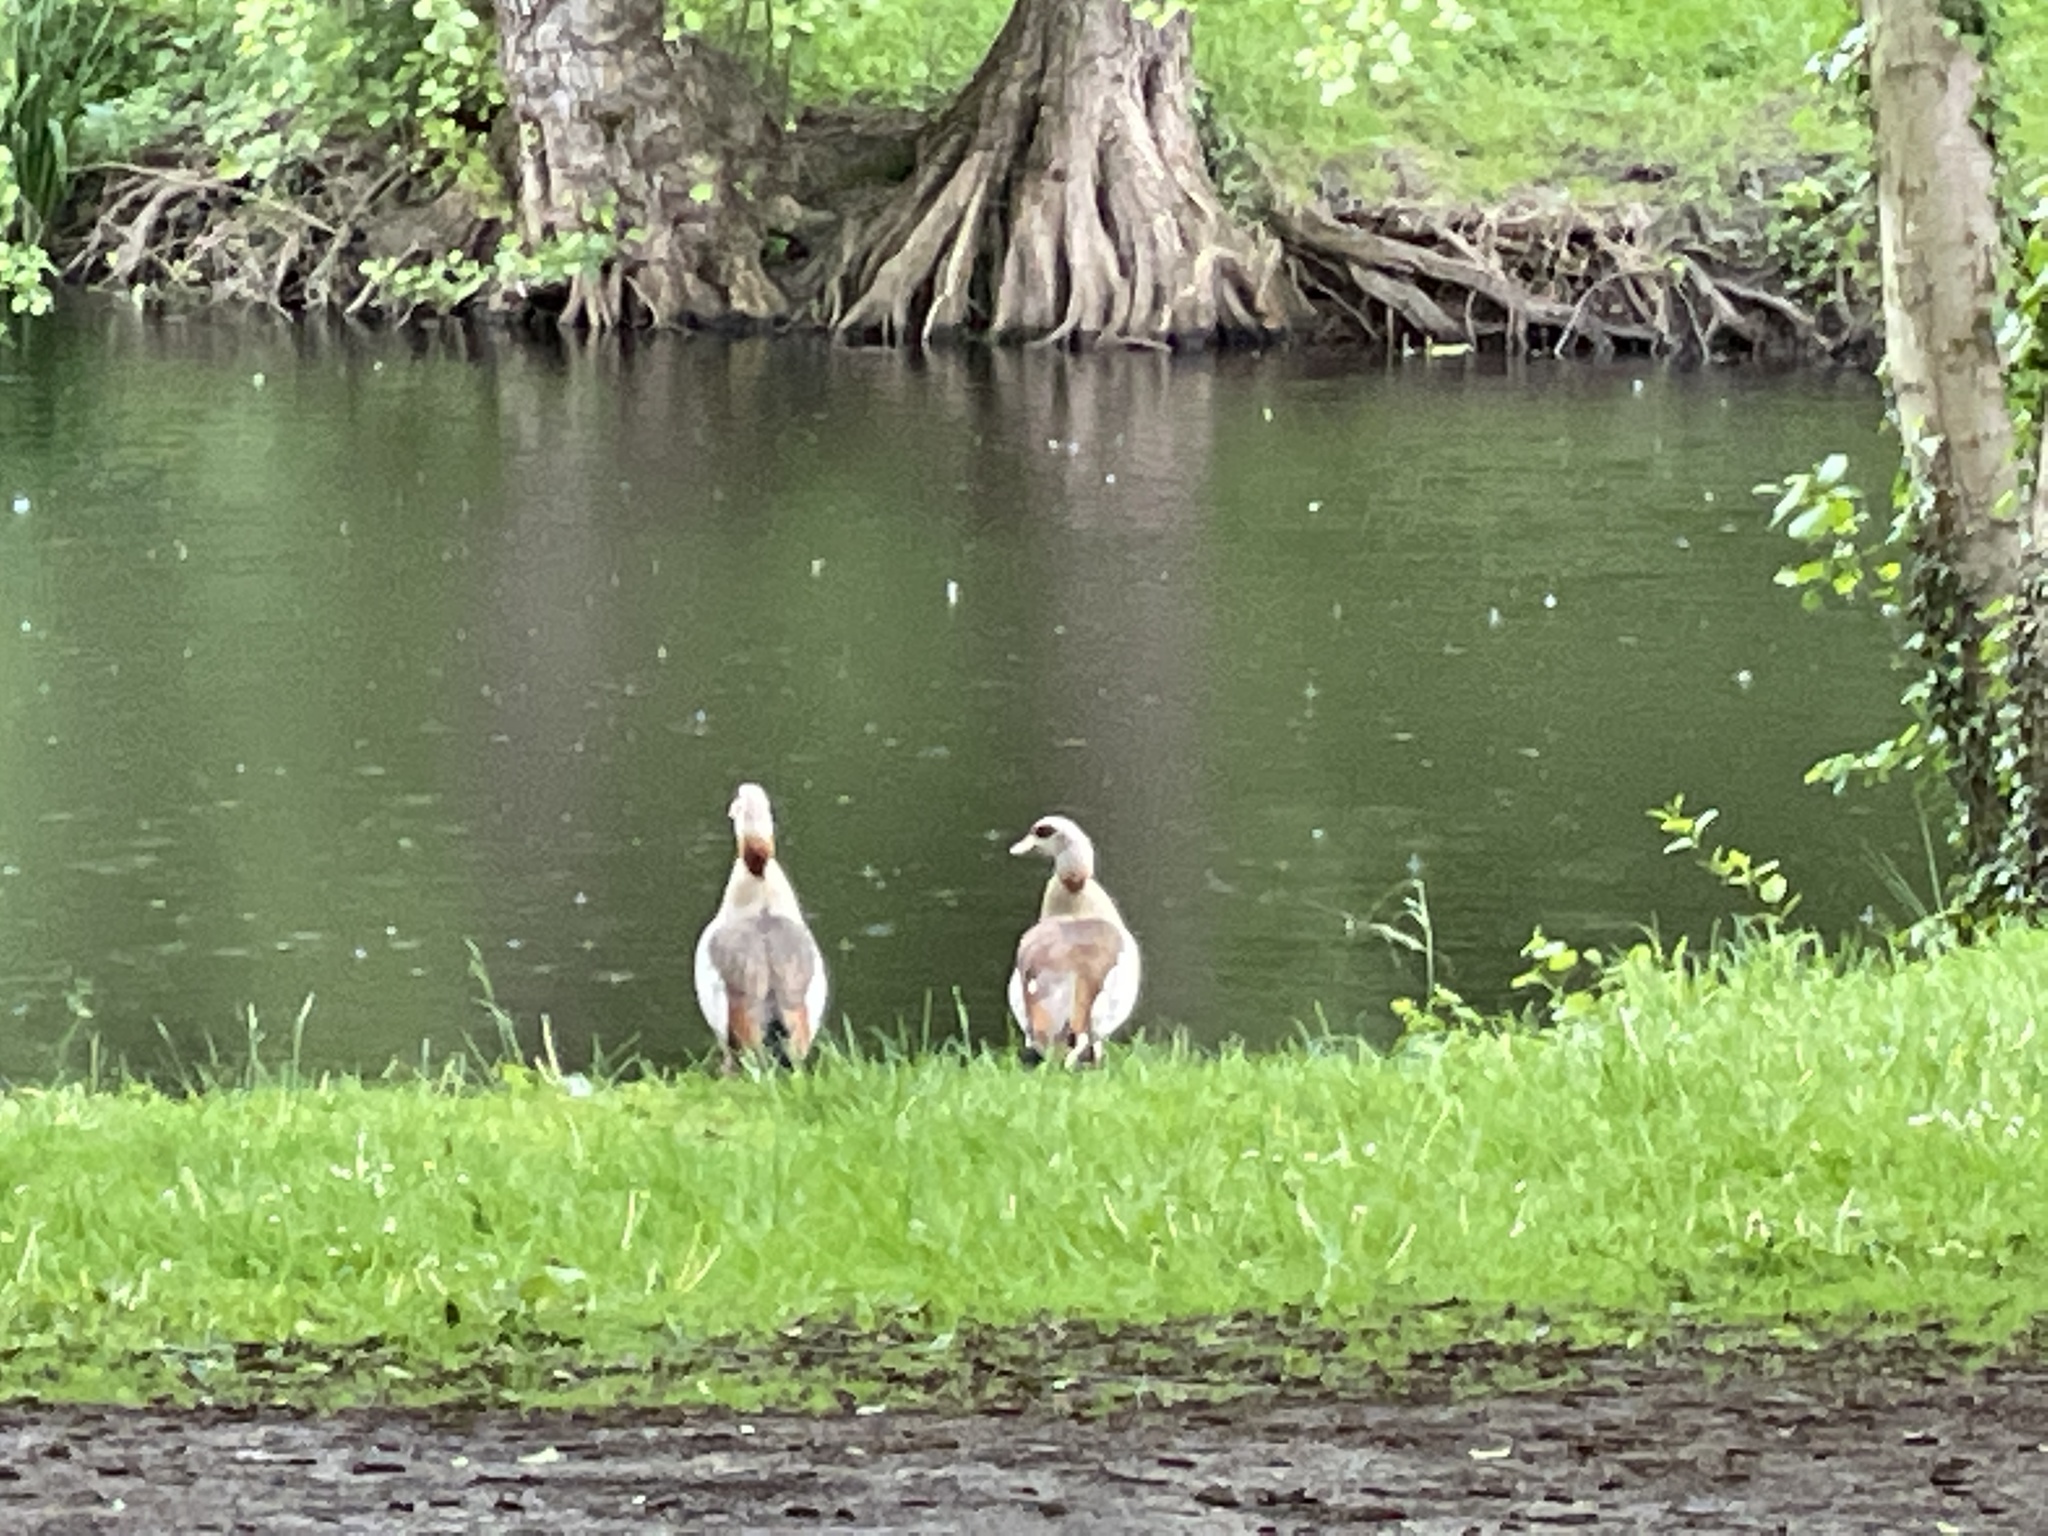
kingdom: Animalia
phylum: Chordata
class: Aves
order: Anseriformes
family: Anatidae
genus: Alopochen
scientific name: Alopochen aegyptiaca
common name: Egyptian goose
